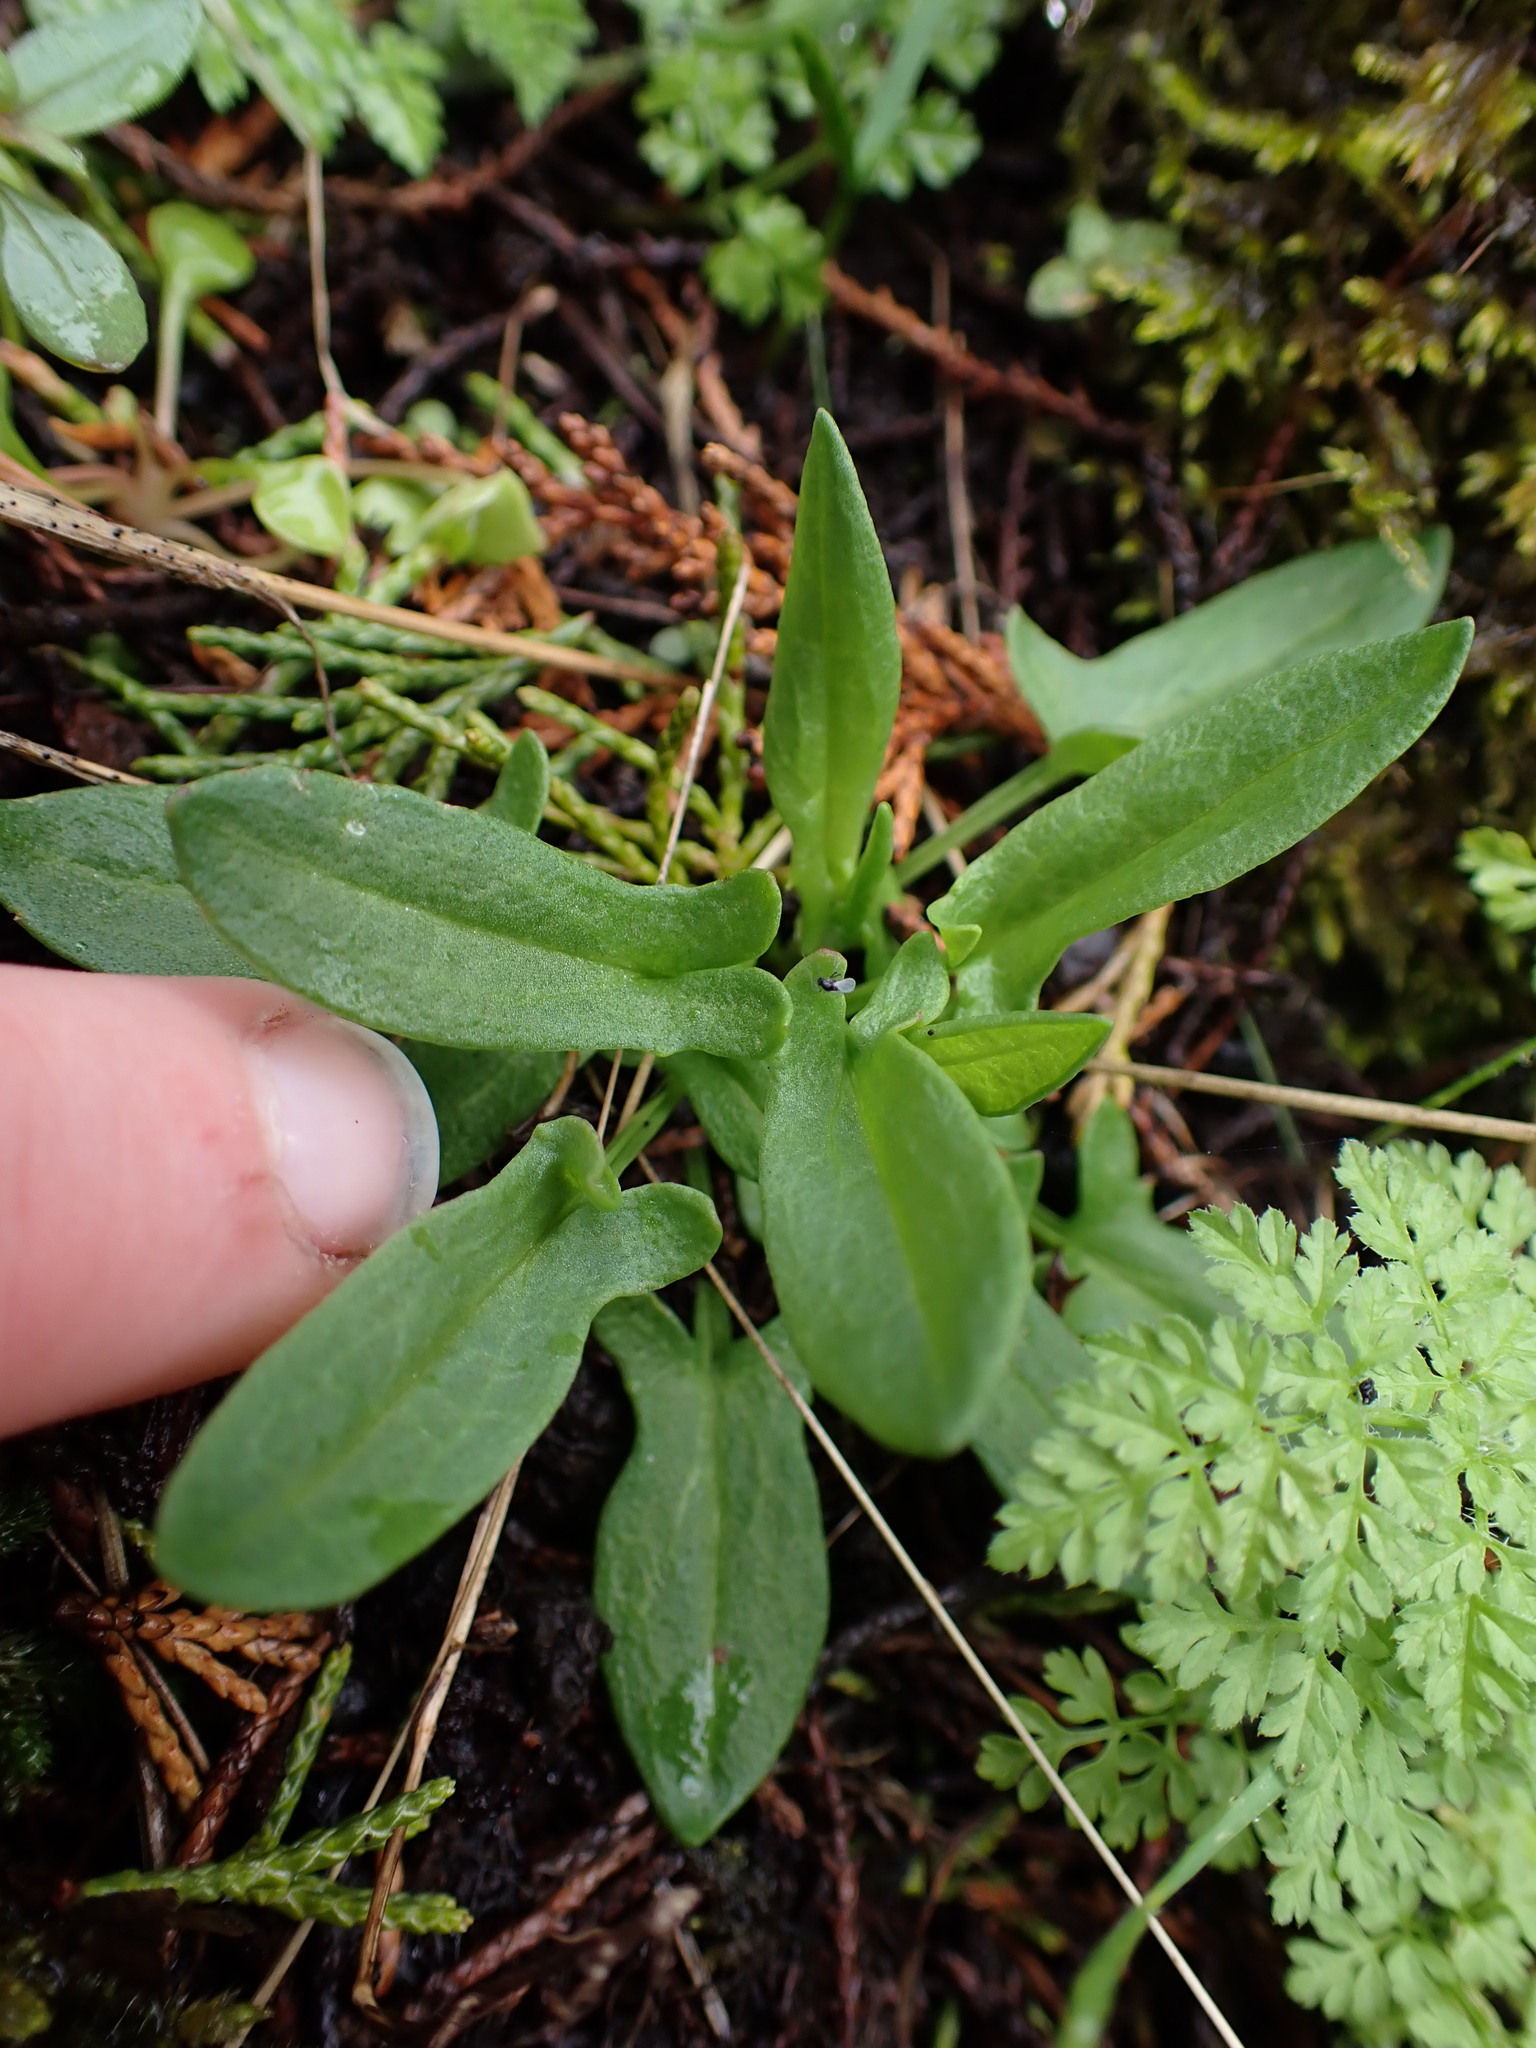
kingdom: Plantae
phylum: Tracheophyta
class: Magnoliopsida
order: Caryophyllales
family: Polygonaceae
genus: Rumex
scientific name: Rumex acetosella
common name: Common sheep sorrel
